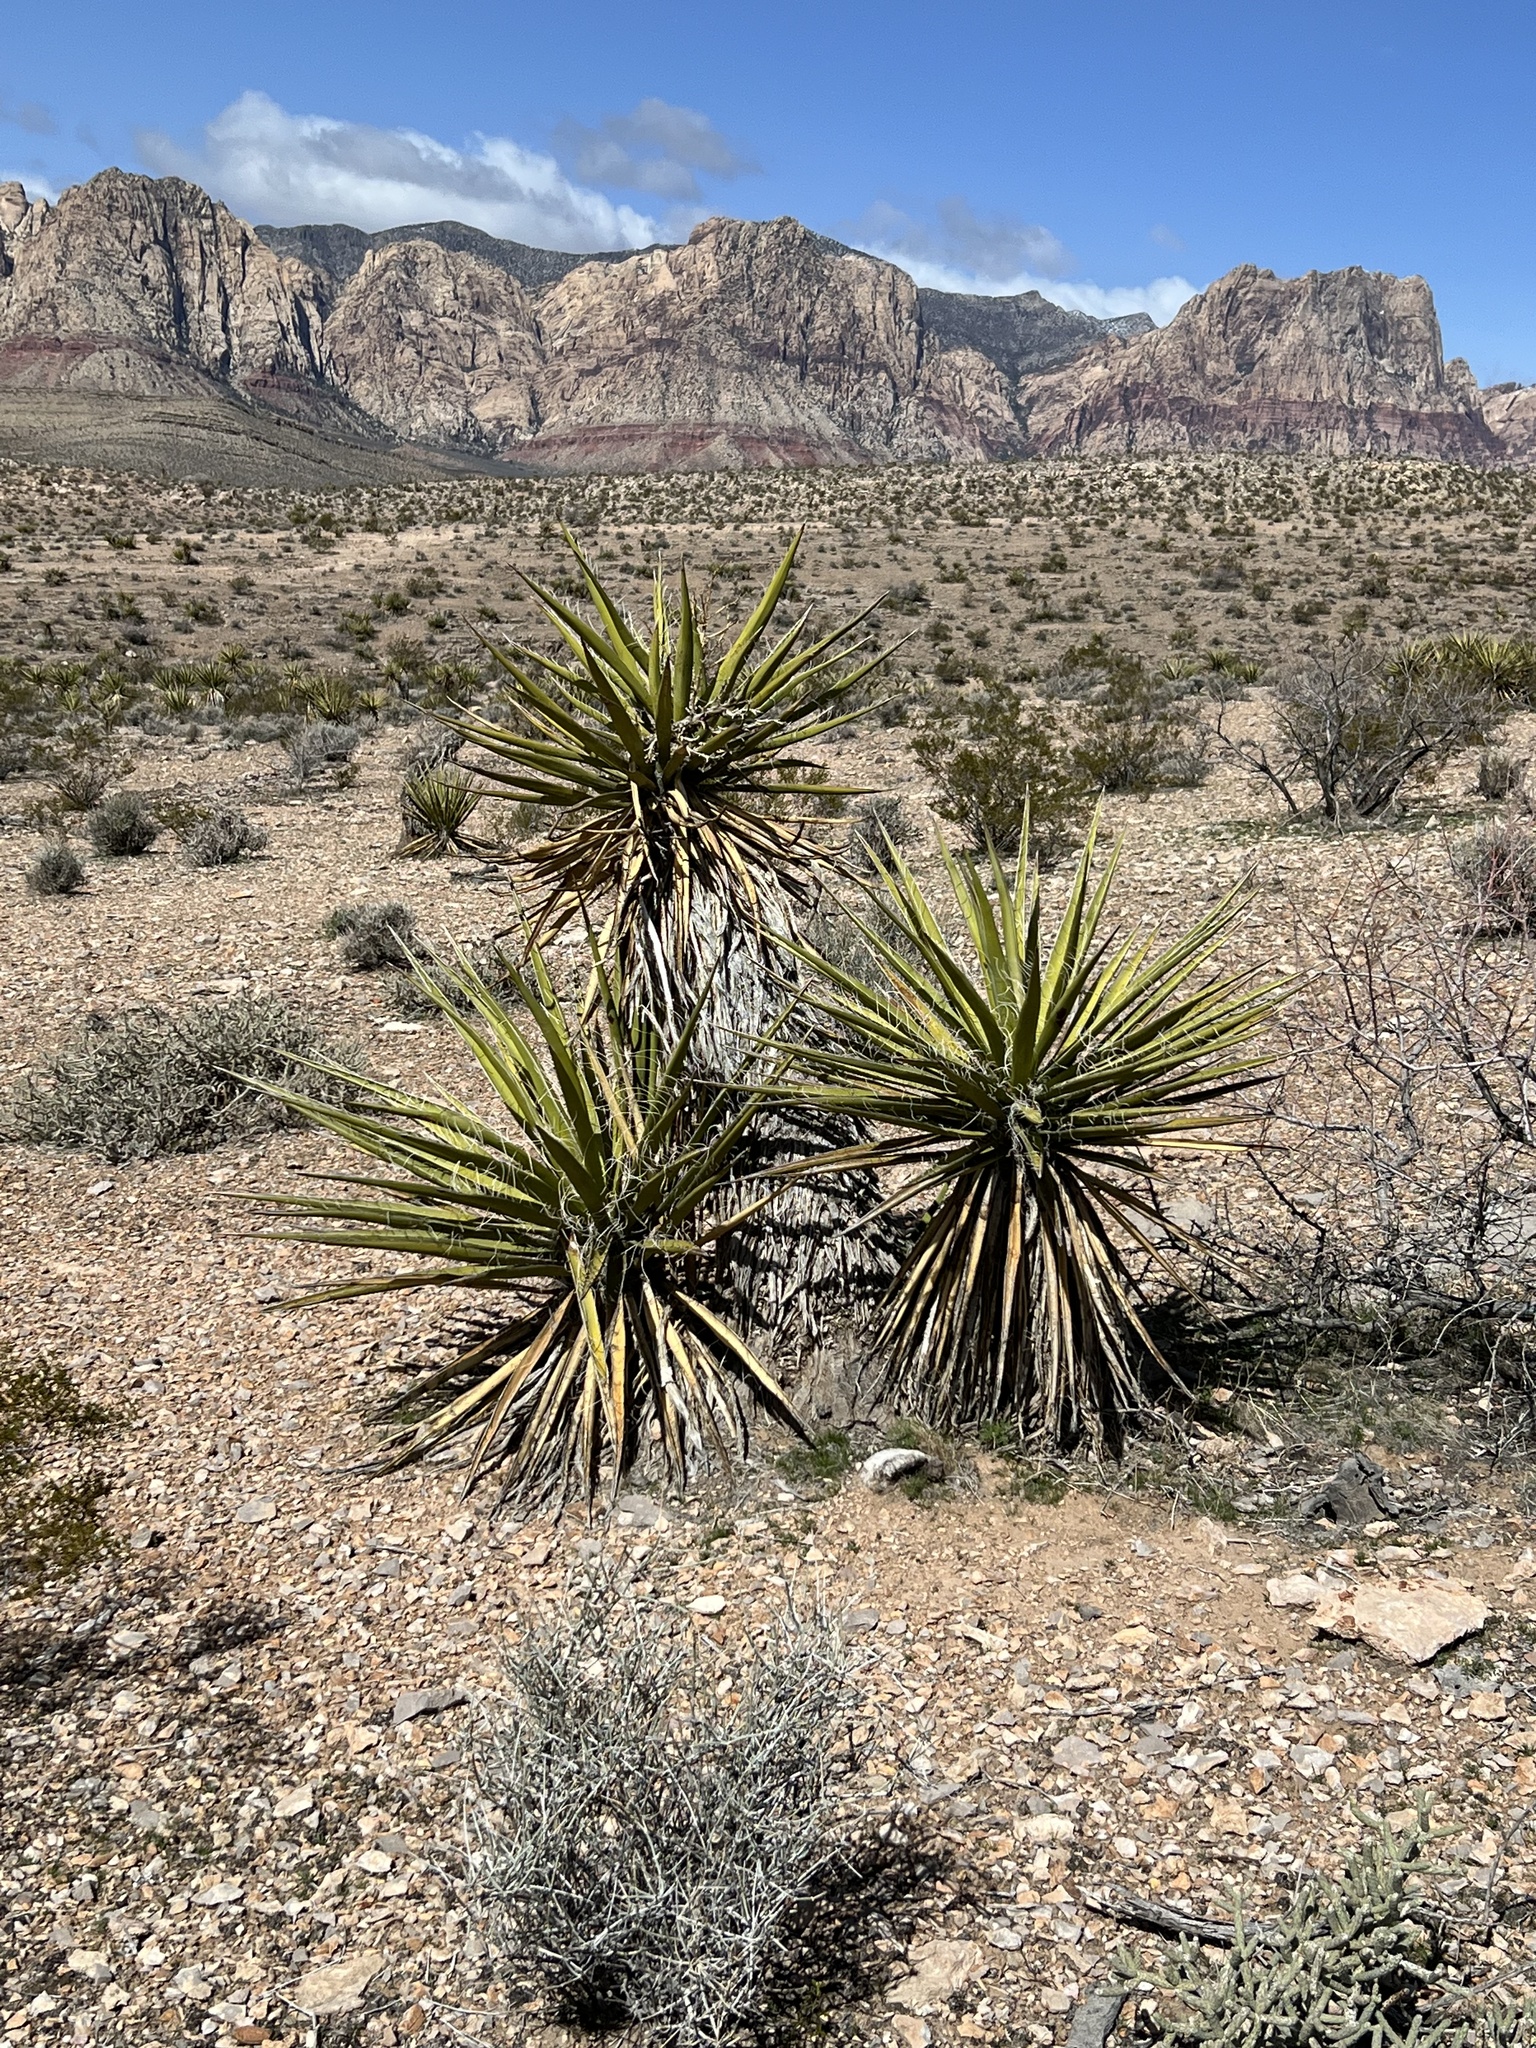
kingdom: Plantae
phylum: Tracheophyta
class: Liliopsida
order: Asparagales
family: Asparagaceae
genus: Yucca
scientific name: Yucca schidigera
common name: Mojave yucca
